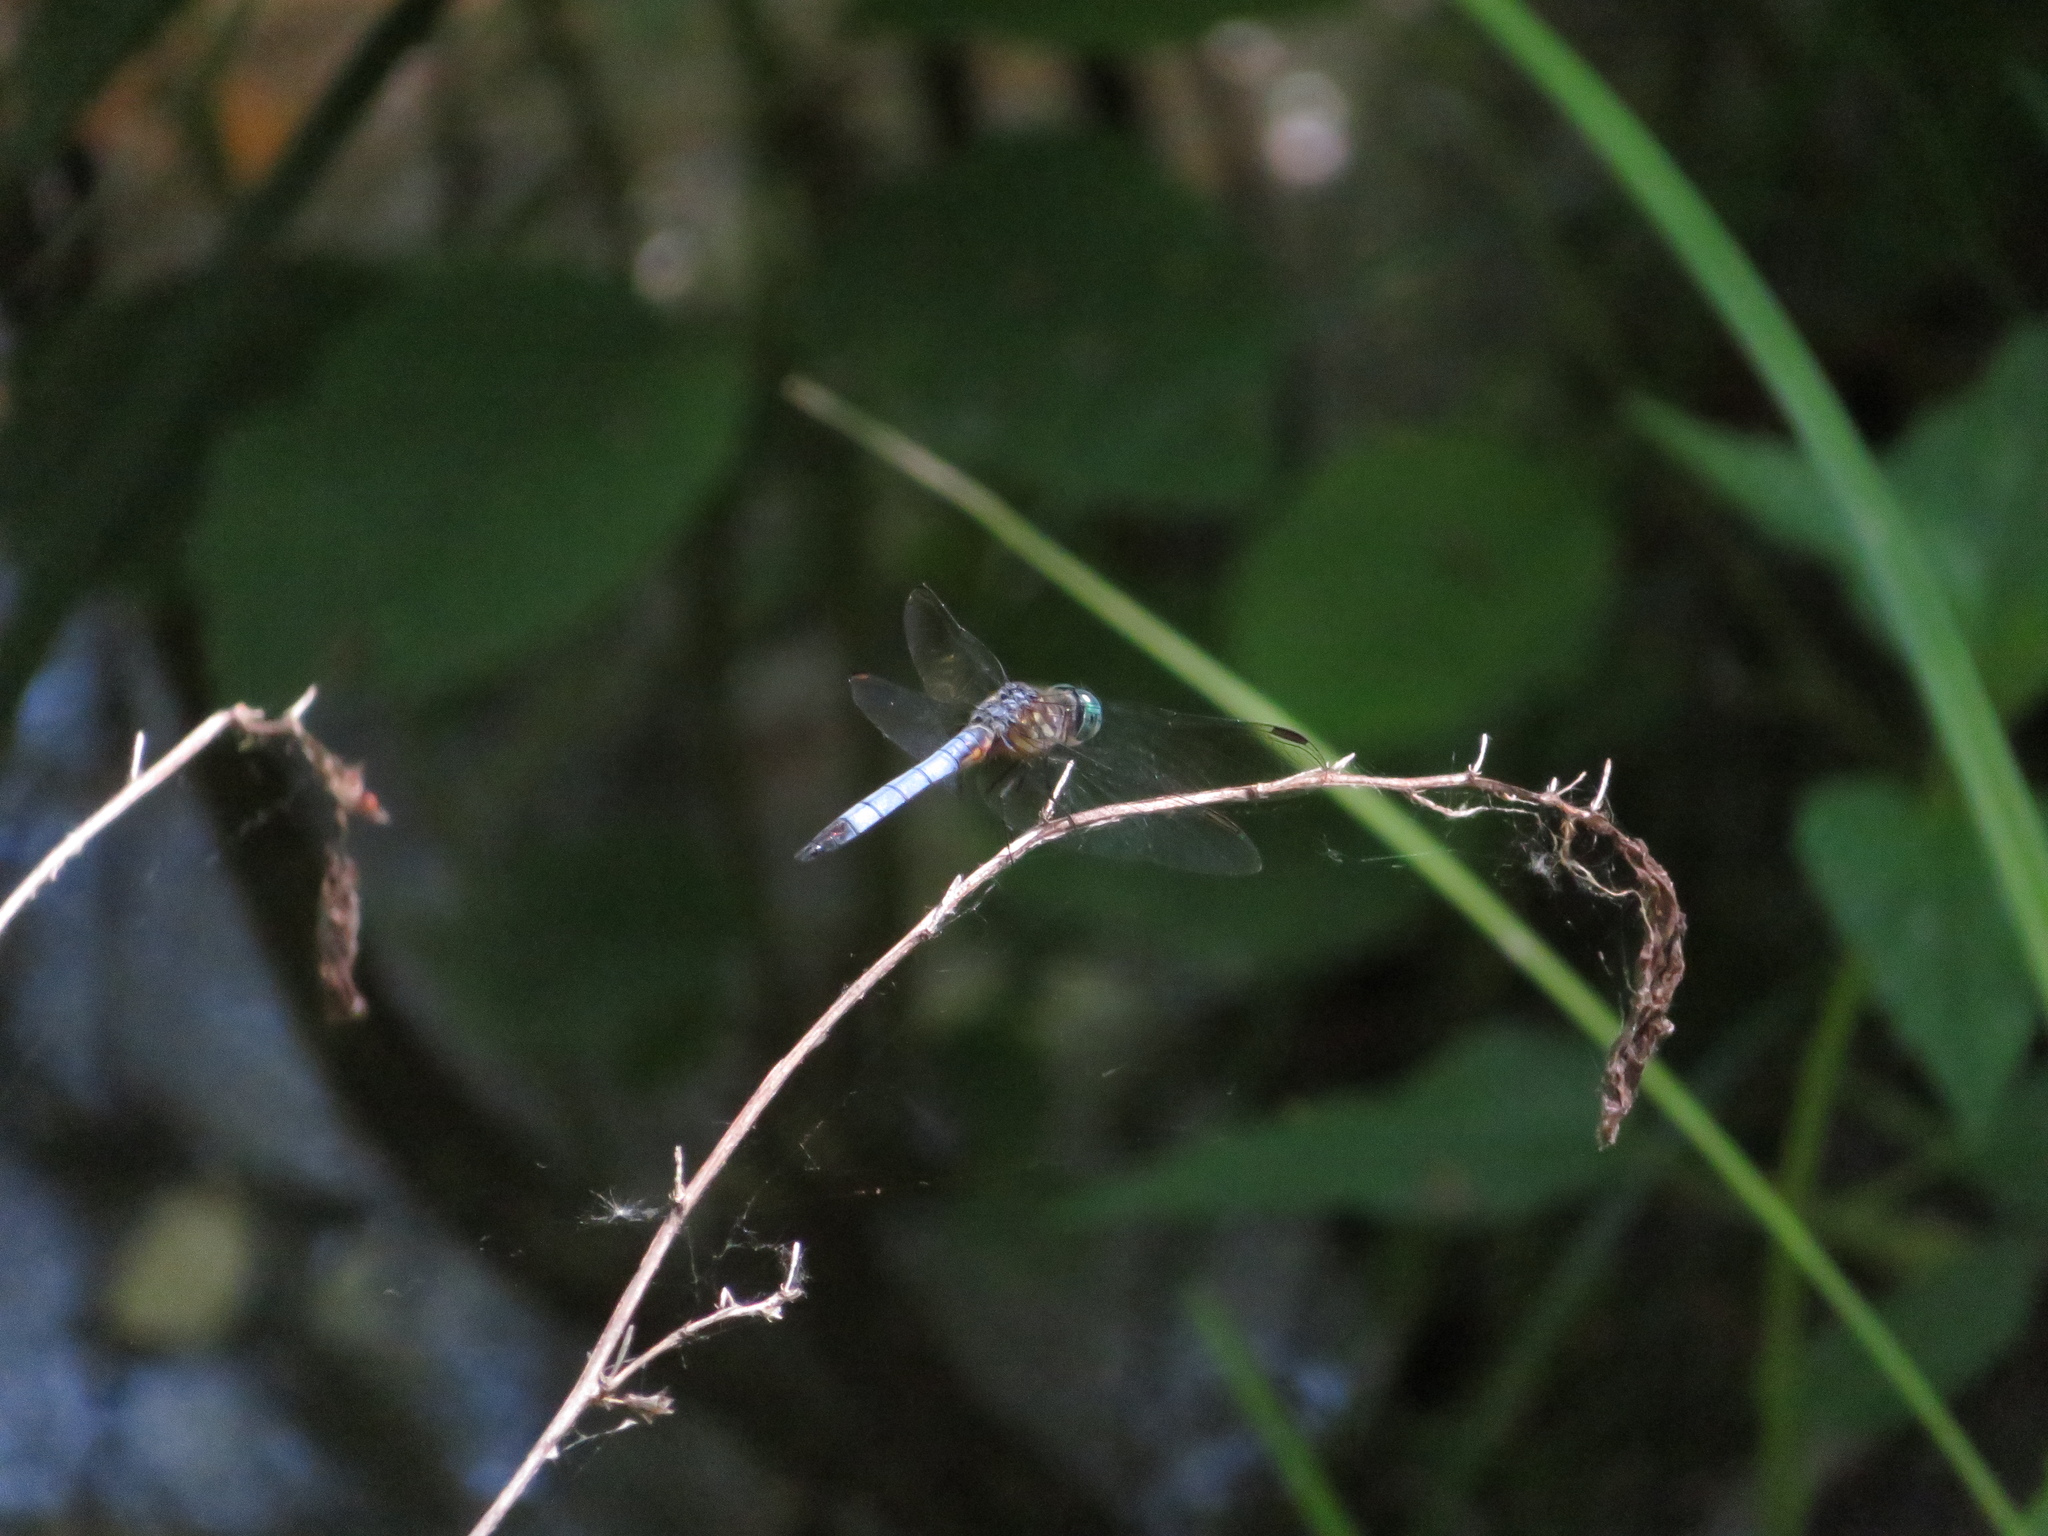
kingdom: Animalia
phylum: Arthropoda
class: Insecta
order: Odonata
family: Libellulidae
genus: Pachydiplax
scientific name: Pachydiplax longipennis
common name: Blue dasher
